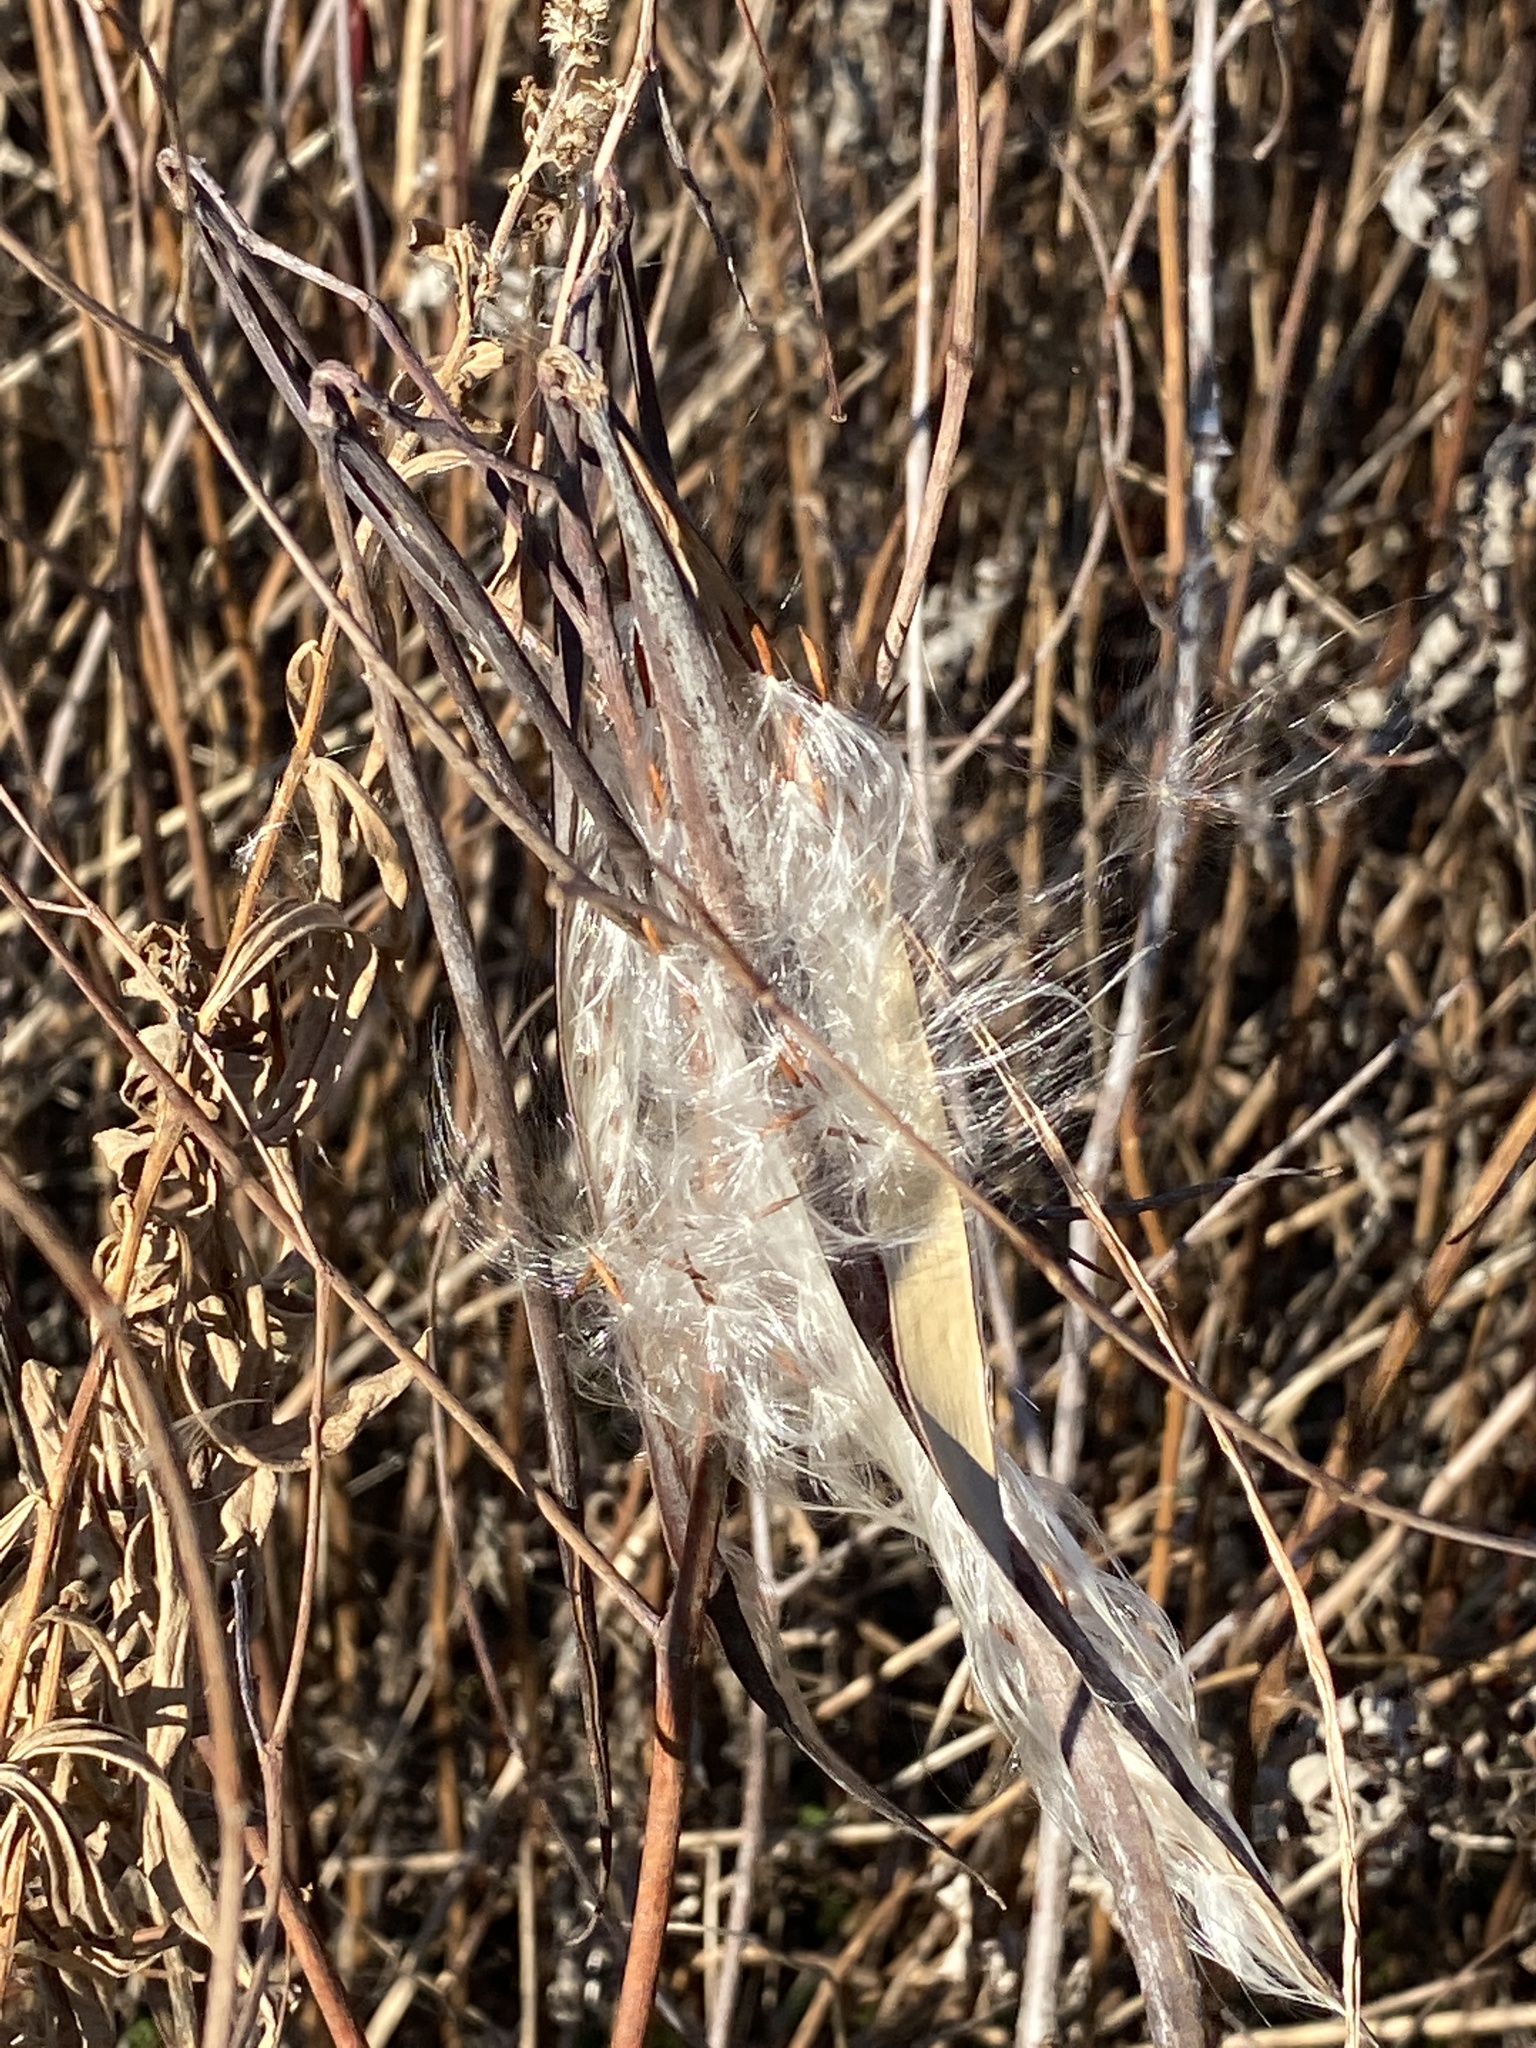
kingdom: Plantae
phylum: Tracheophyta
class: Magnoliopsida
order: Gentianales
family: Apocynaceae
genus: Apocynum
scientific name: Apocynum cannabinum
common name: Hemp dogbane
